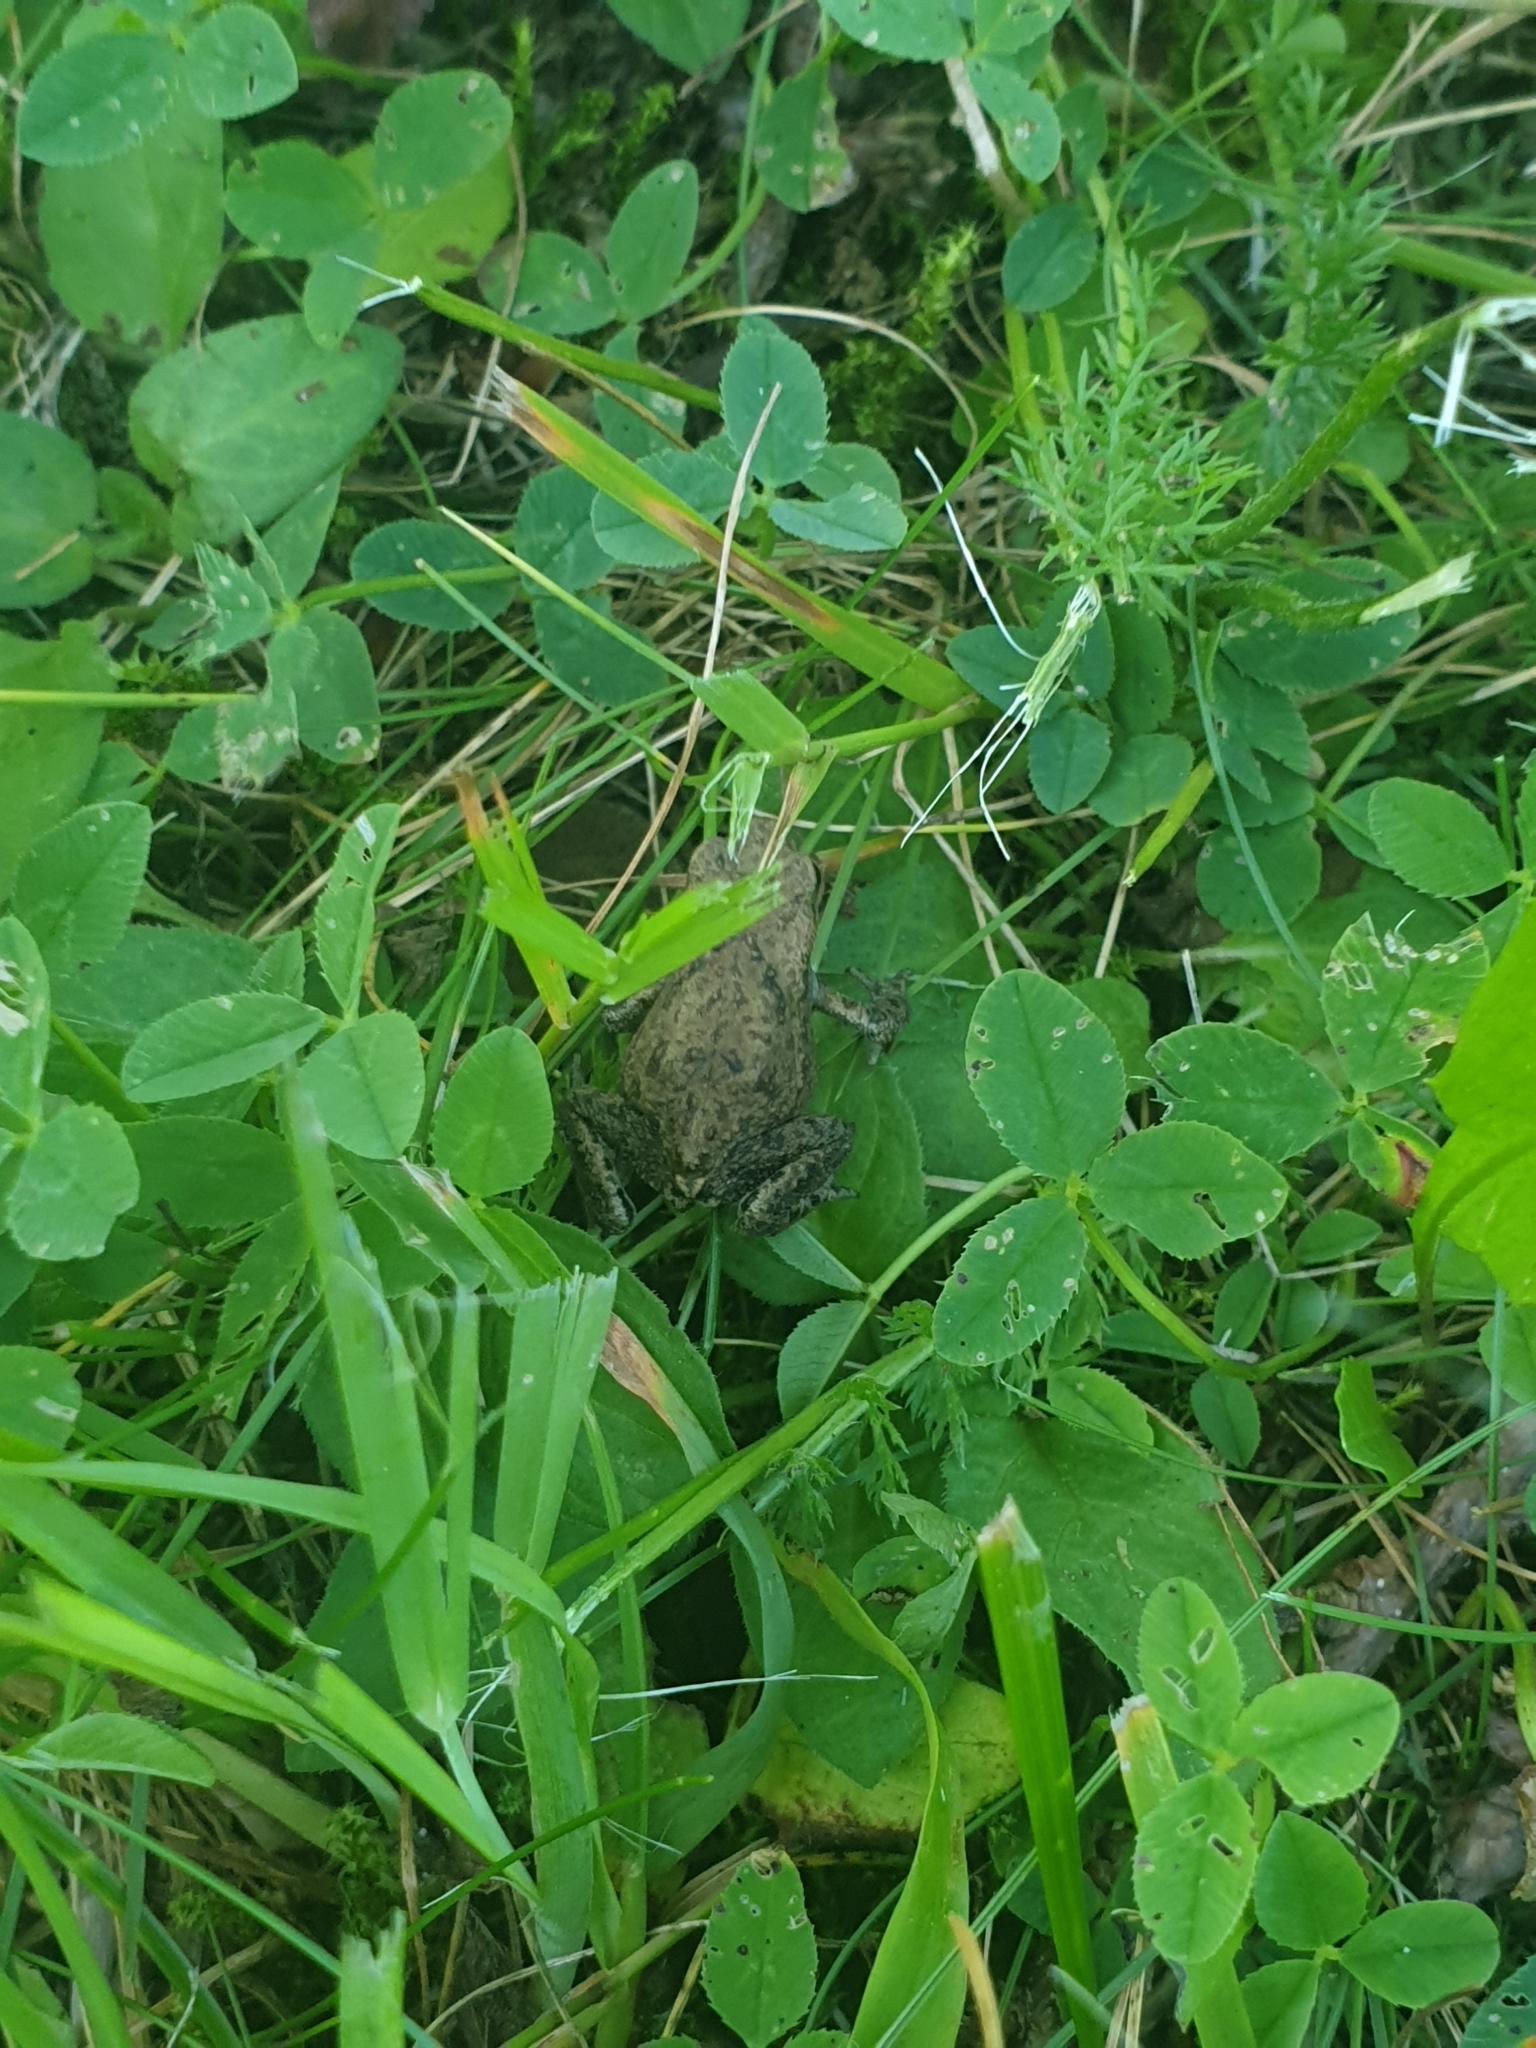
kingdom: Animalia
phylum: Chordata
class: Amphibia
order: Anura
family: Bufonidae
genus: Bufo
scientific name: Bufo bufo
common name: Common toad
